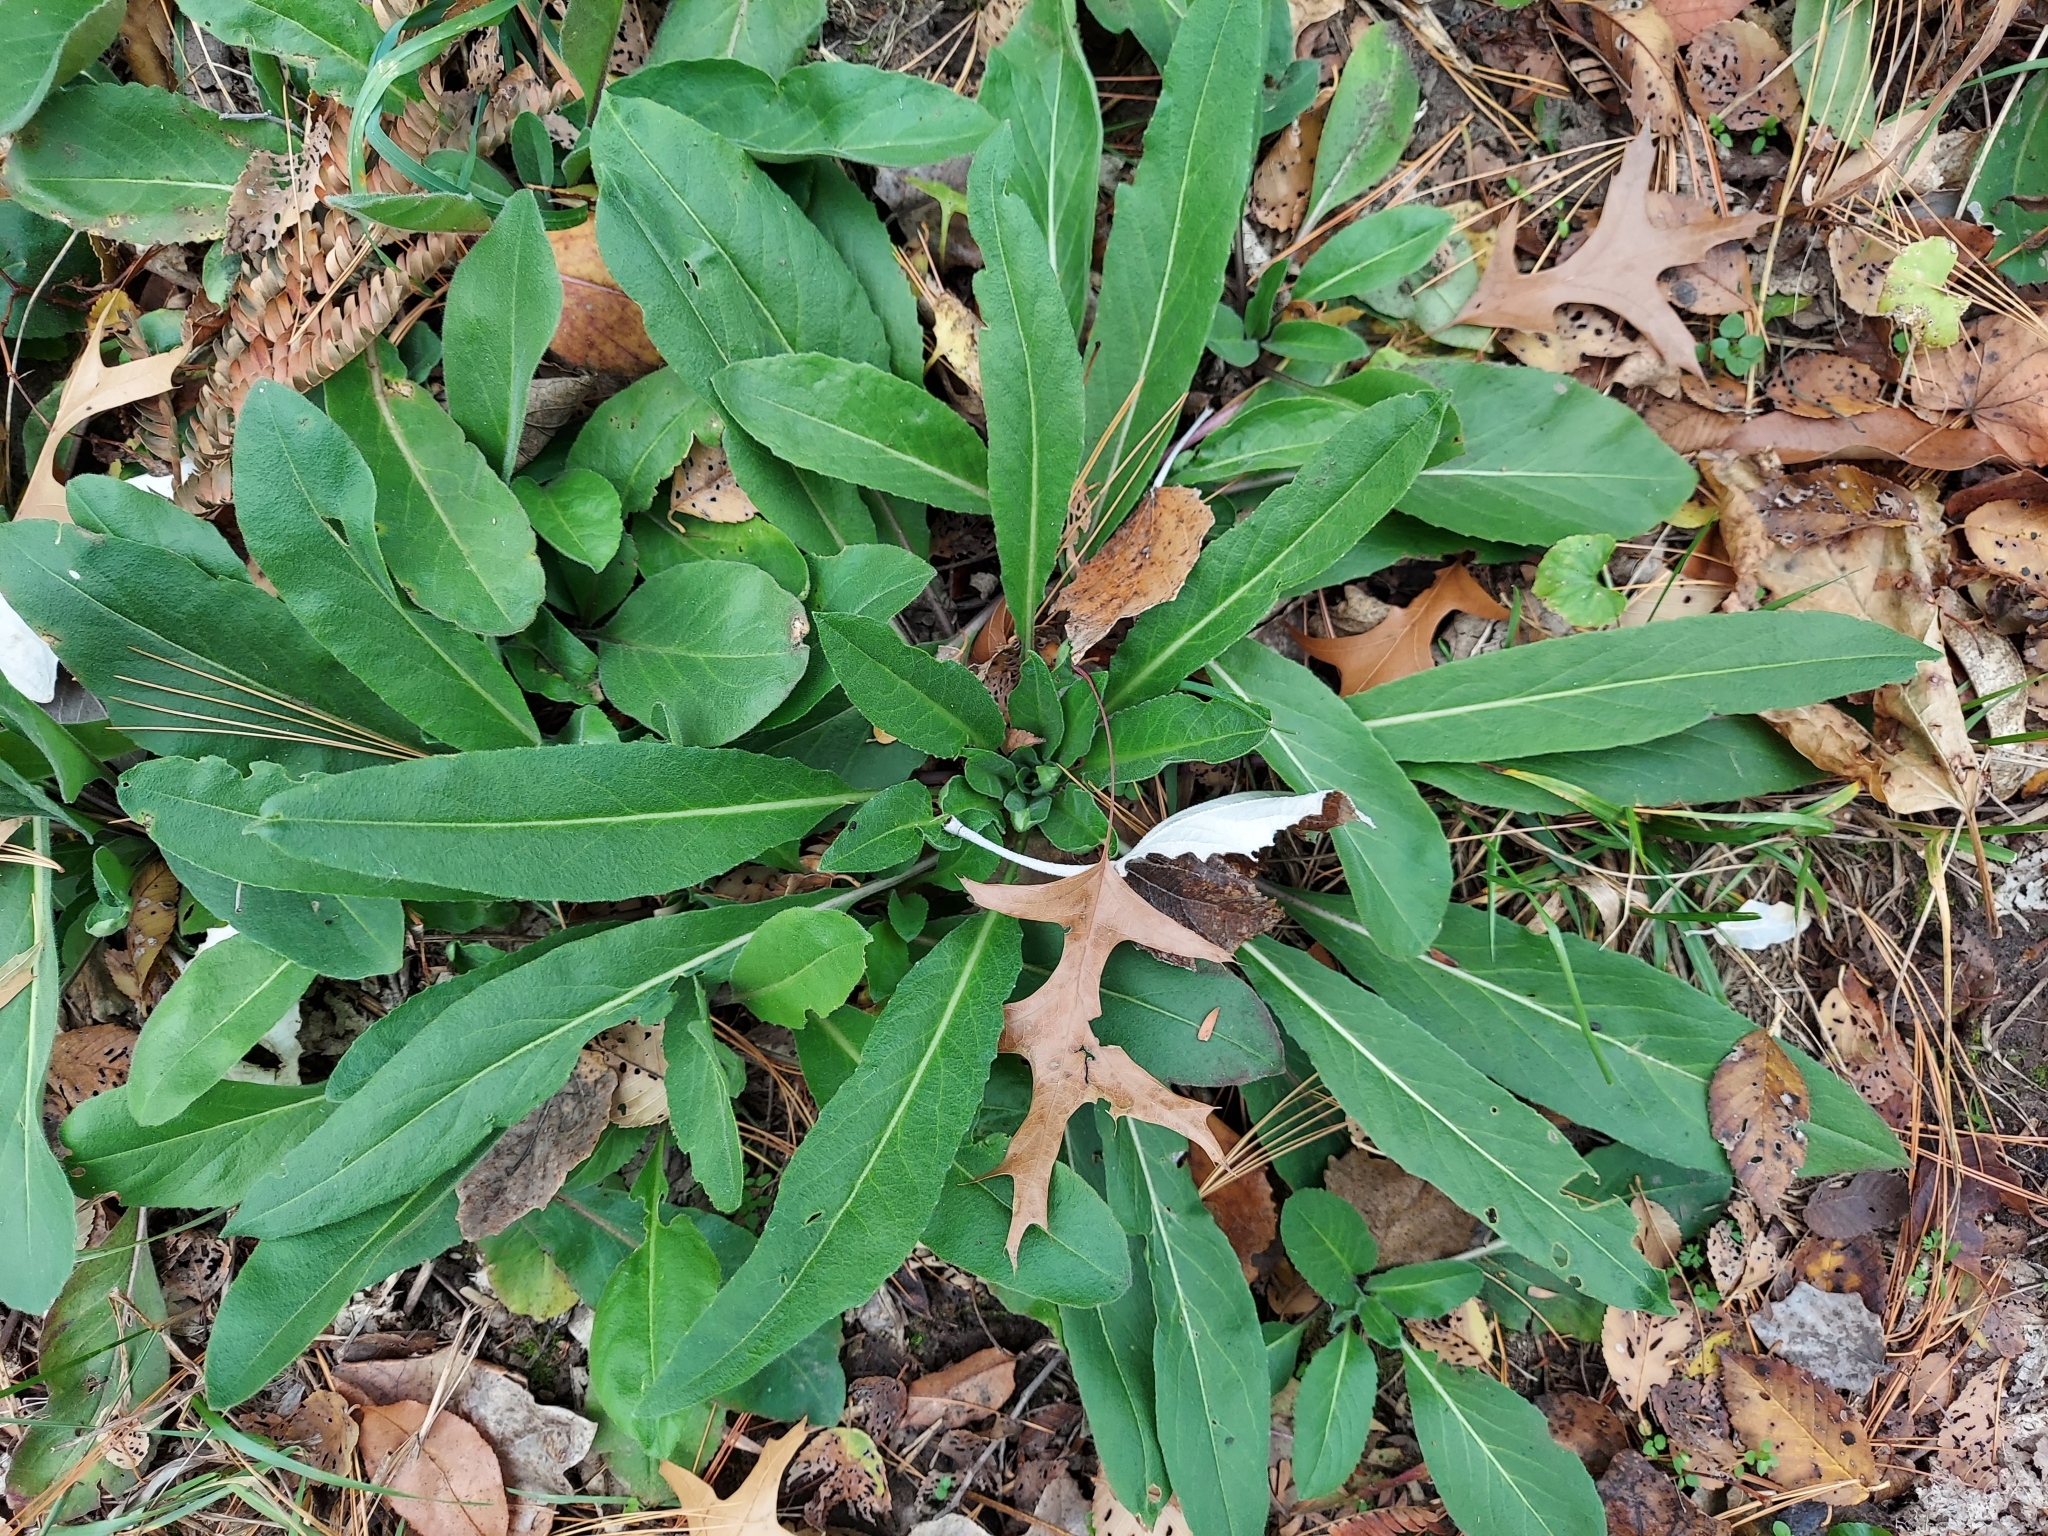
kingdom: Plantae
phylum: Tracheophyta
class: Magnoliopsida
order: Brassicales
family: Brassicaceae
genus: Hesperis
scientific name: Hesperis matronalis
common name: Dame's-violet
